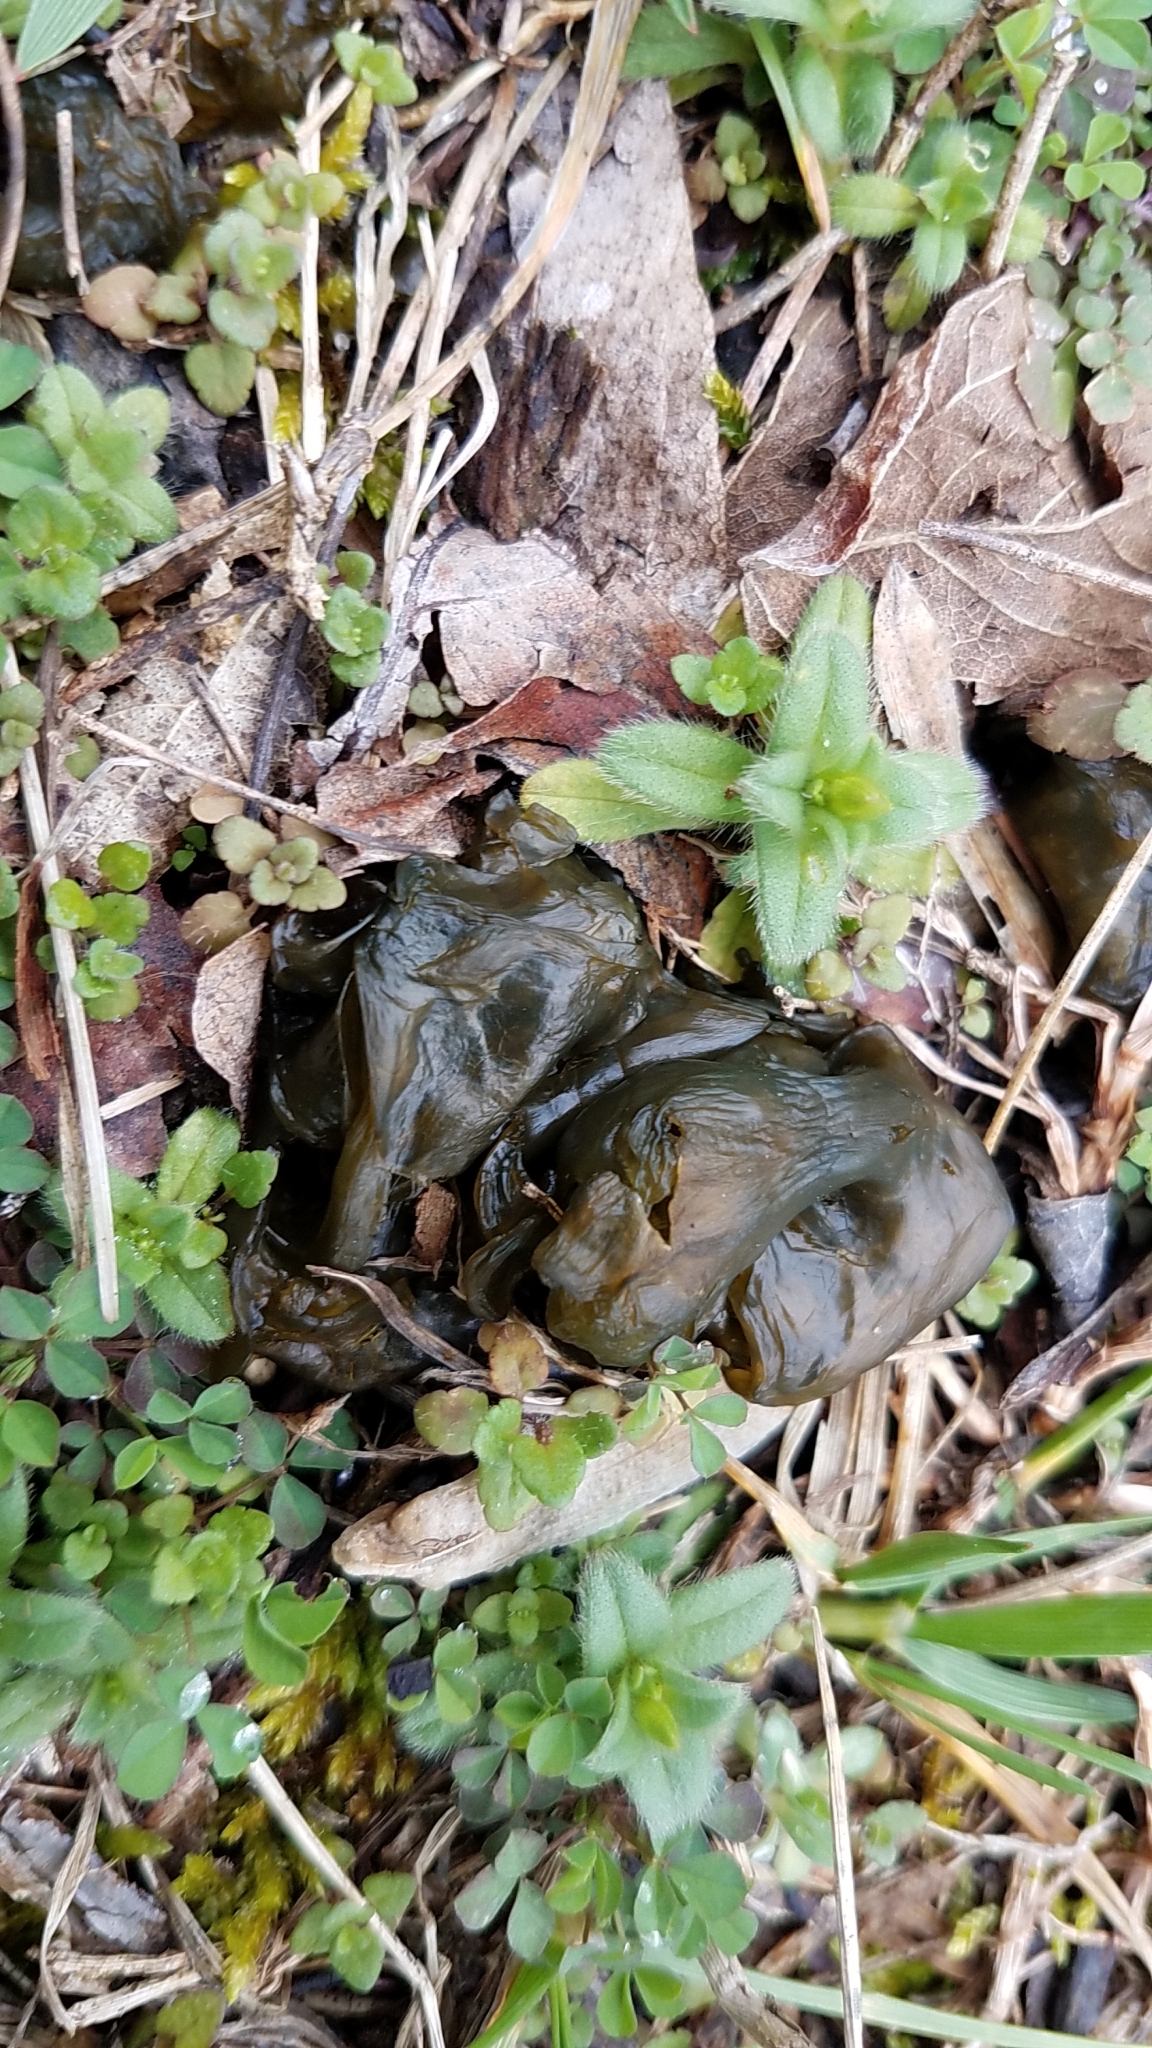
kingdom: Bacteria
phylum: Cyanobacteria
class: Cyanobacteriia
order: Cyanobacteriales
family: Nostocaceae
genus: Nostoc
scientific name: Nostoc commune
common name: Star jelly
